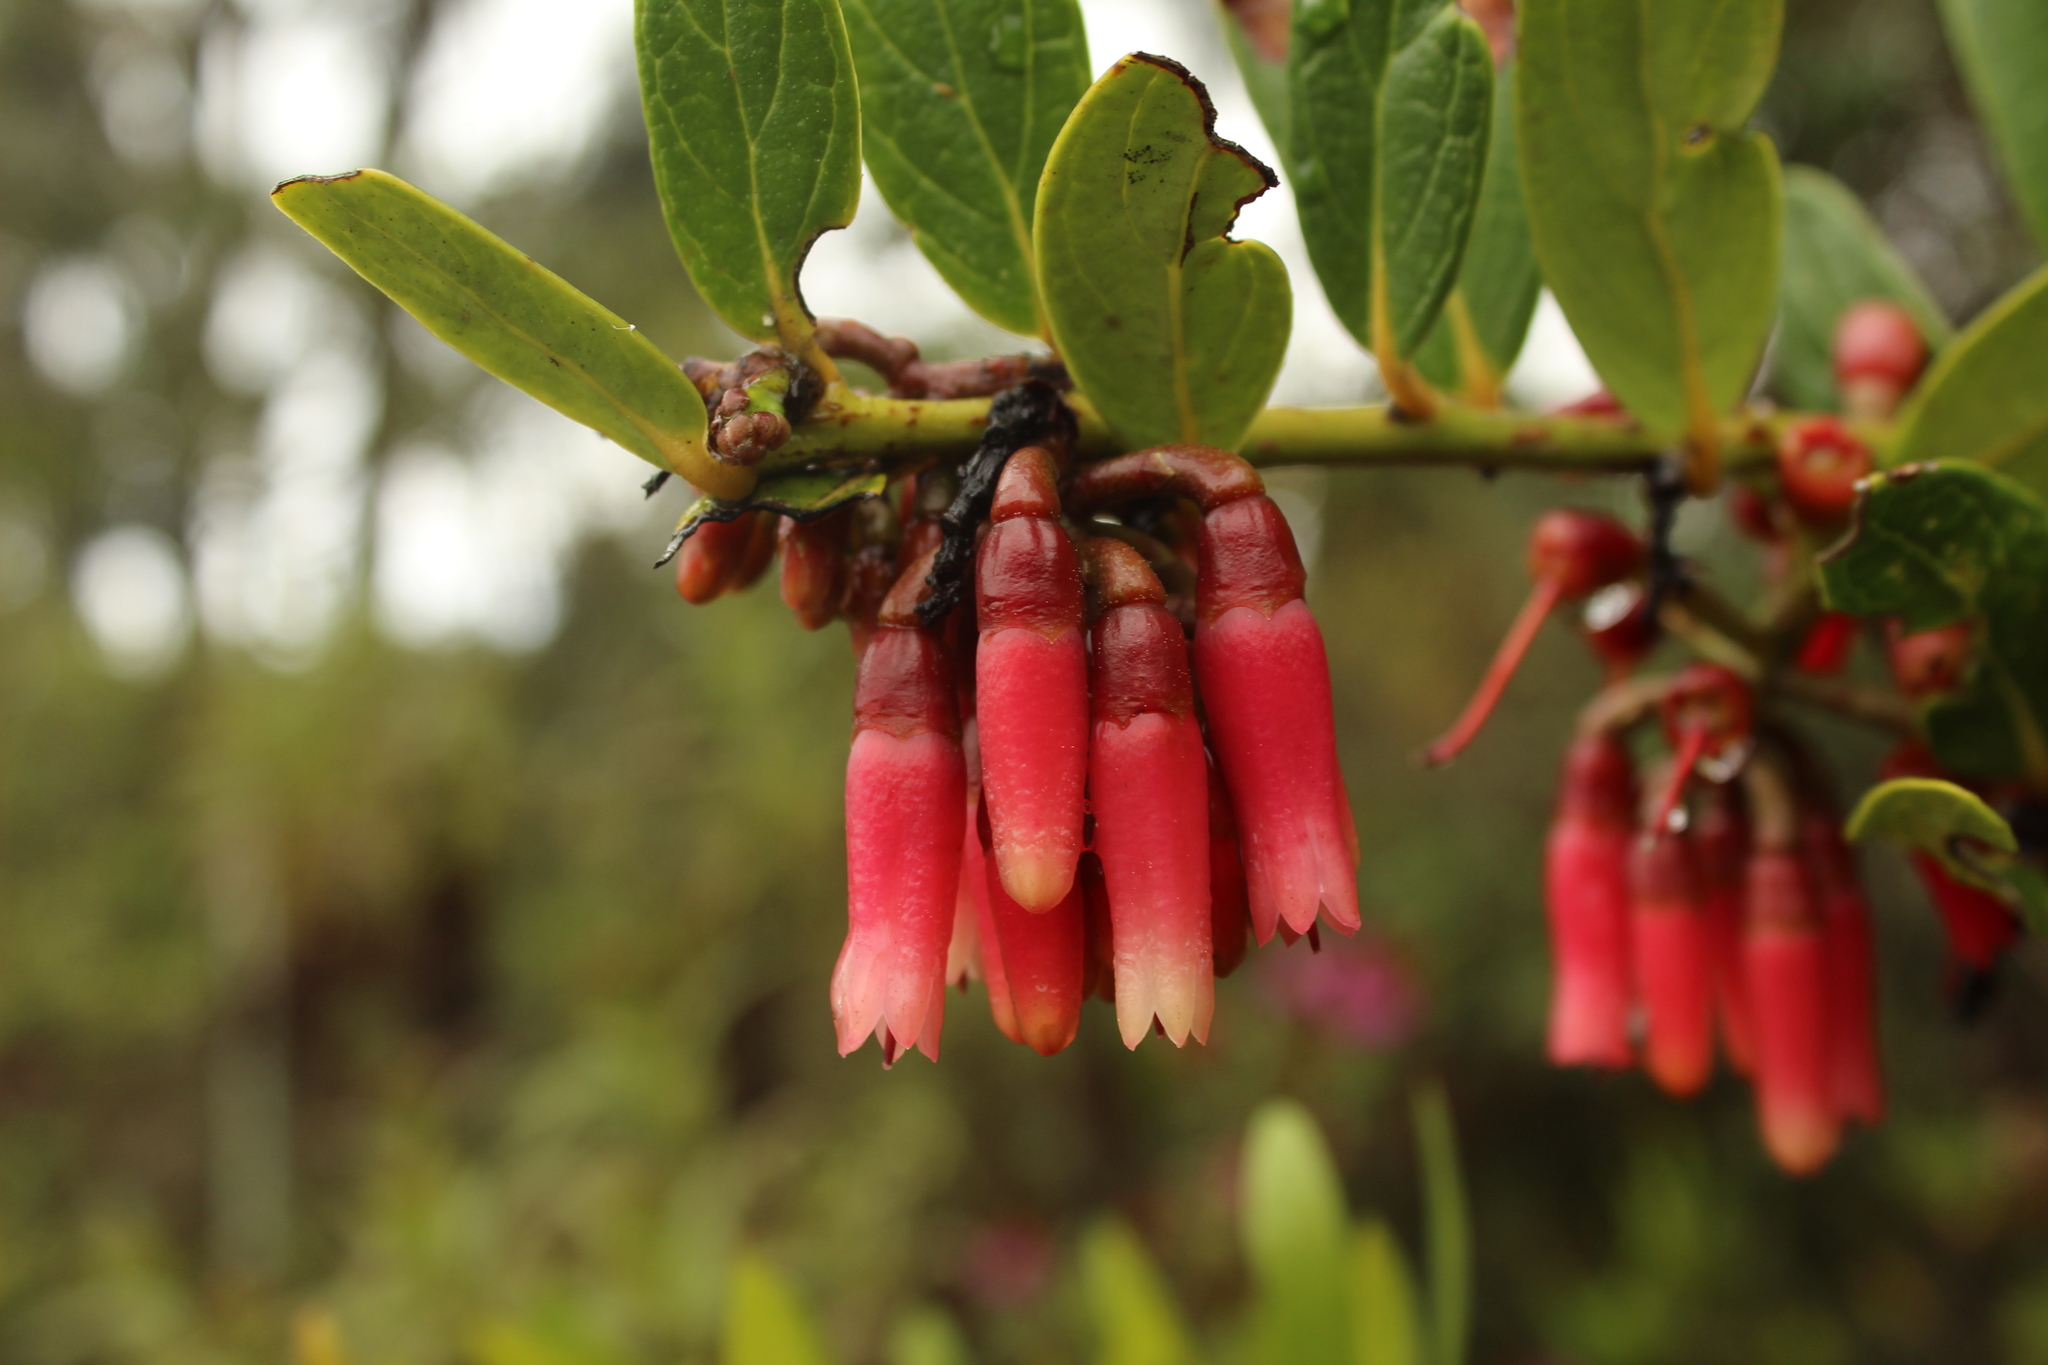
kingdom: Plantae
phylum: Tracheophyta
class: Magnoliopsida
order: Ericales
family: Ericaceae
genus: Macleania
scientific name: Macleania rupestris
